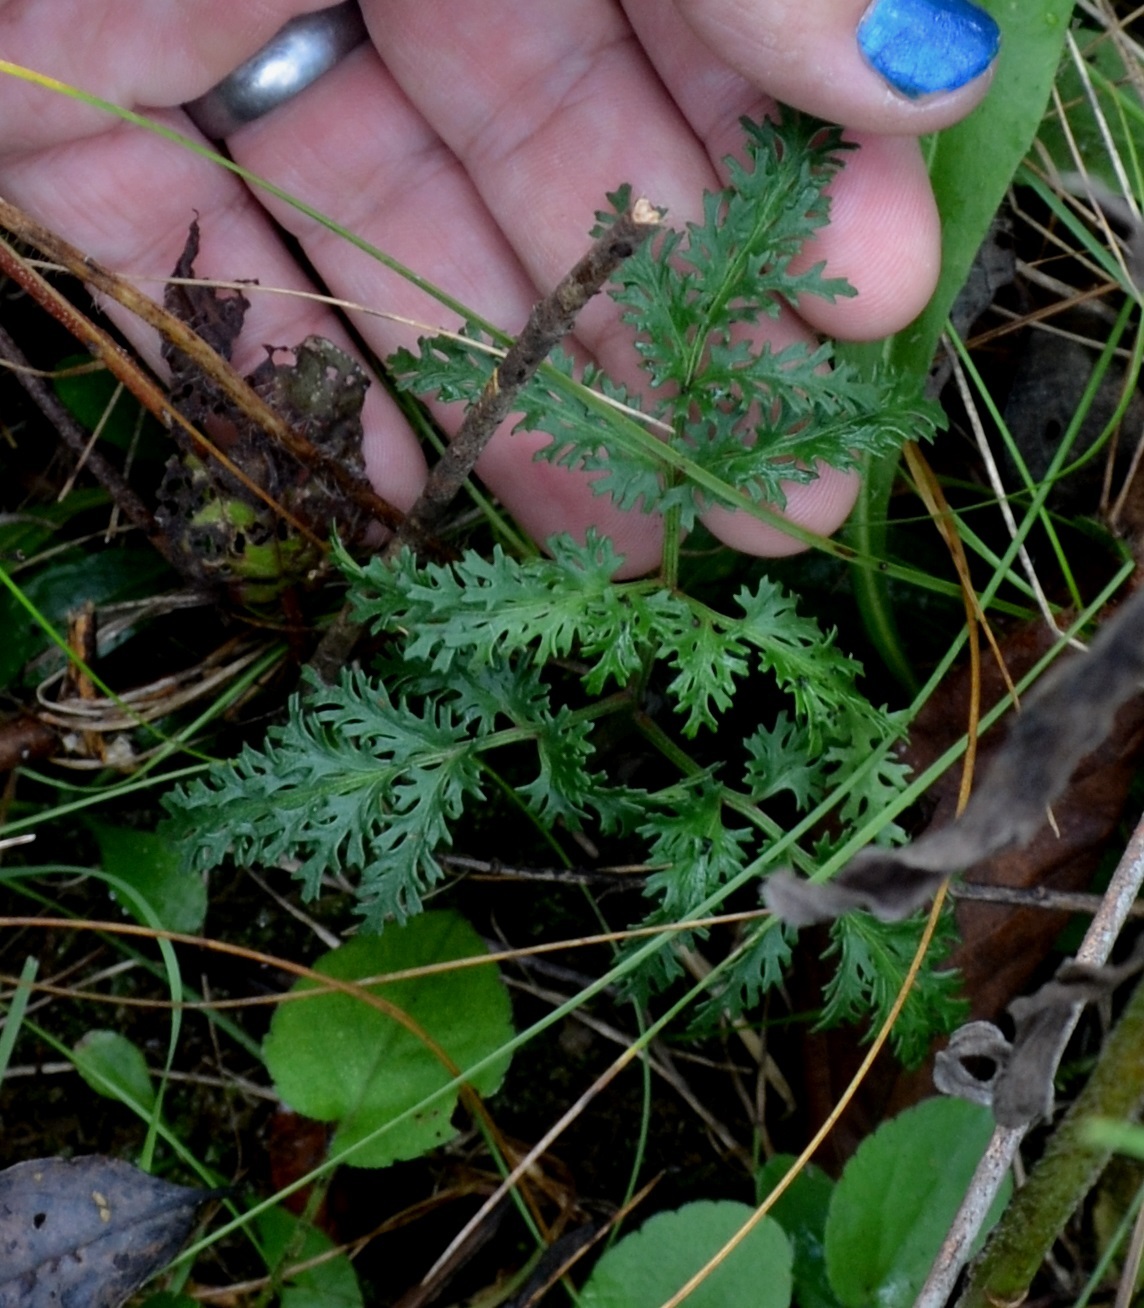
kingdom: Plantae
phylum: Tracheophyta
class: Polypodiopsida
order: Ophioglossales
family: Ophioglossaceae
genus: Sceptridium
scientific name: Sceptridium dissectum
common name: Cut-leaved grapefern
